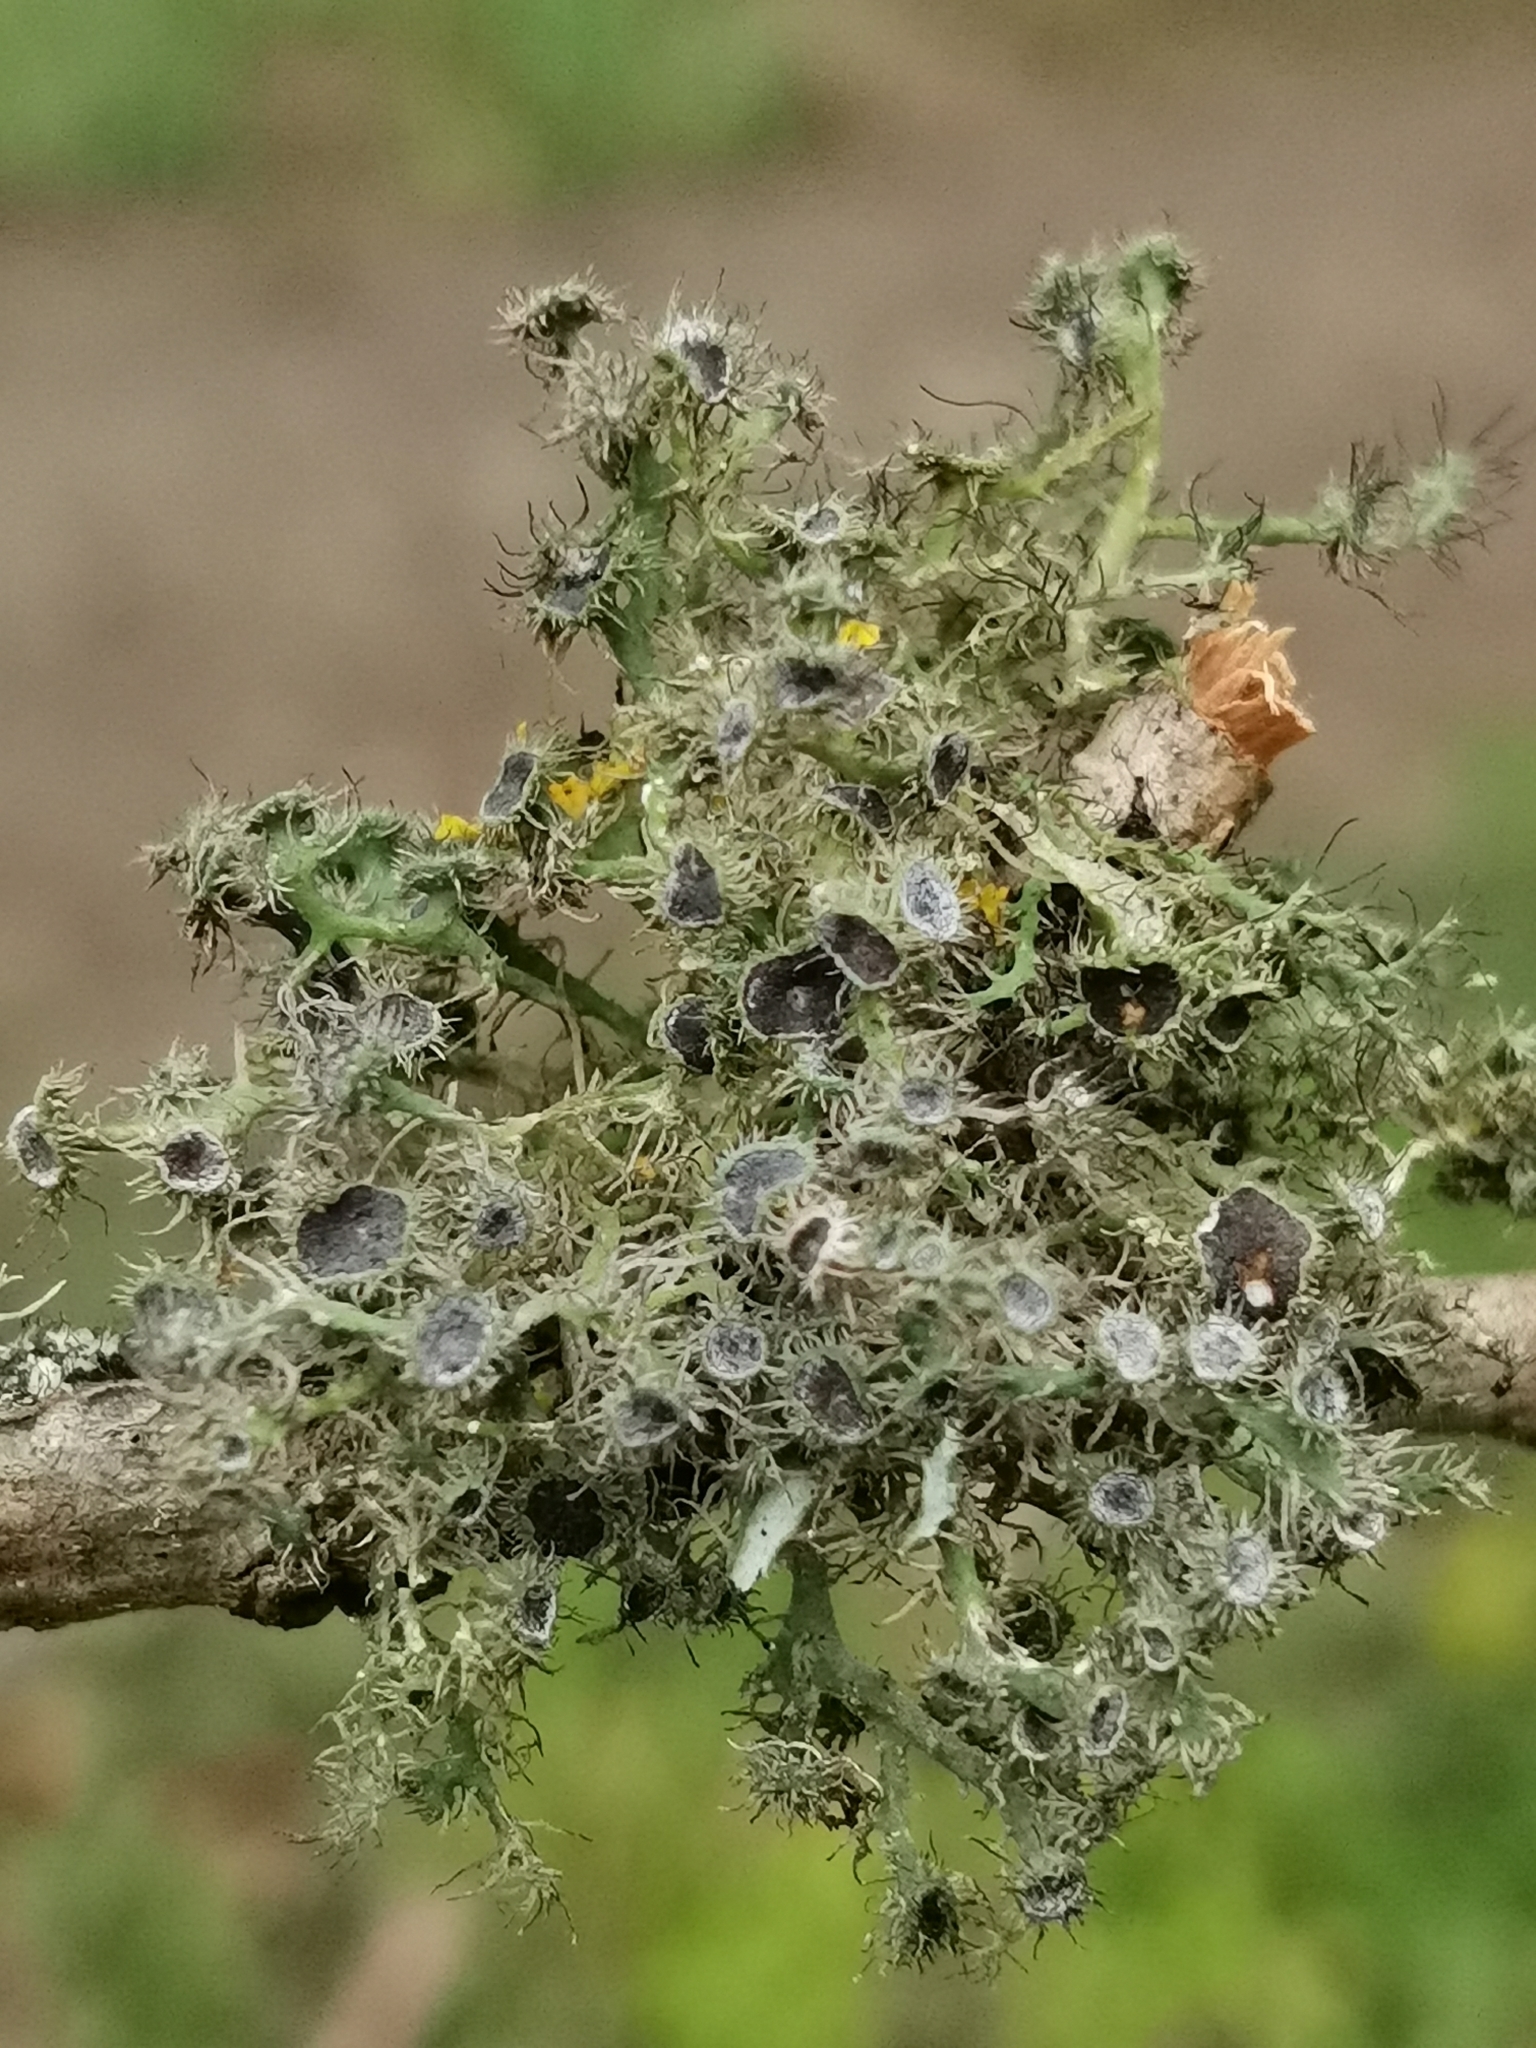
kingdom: Fungi
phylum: Ascomycota
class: Lecanoromycetes
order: Caliciales
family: Physciaceae
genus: Anaptychia
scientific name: Anaptychia ciliaris
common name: Great ciliated lichen
